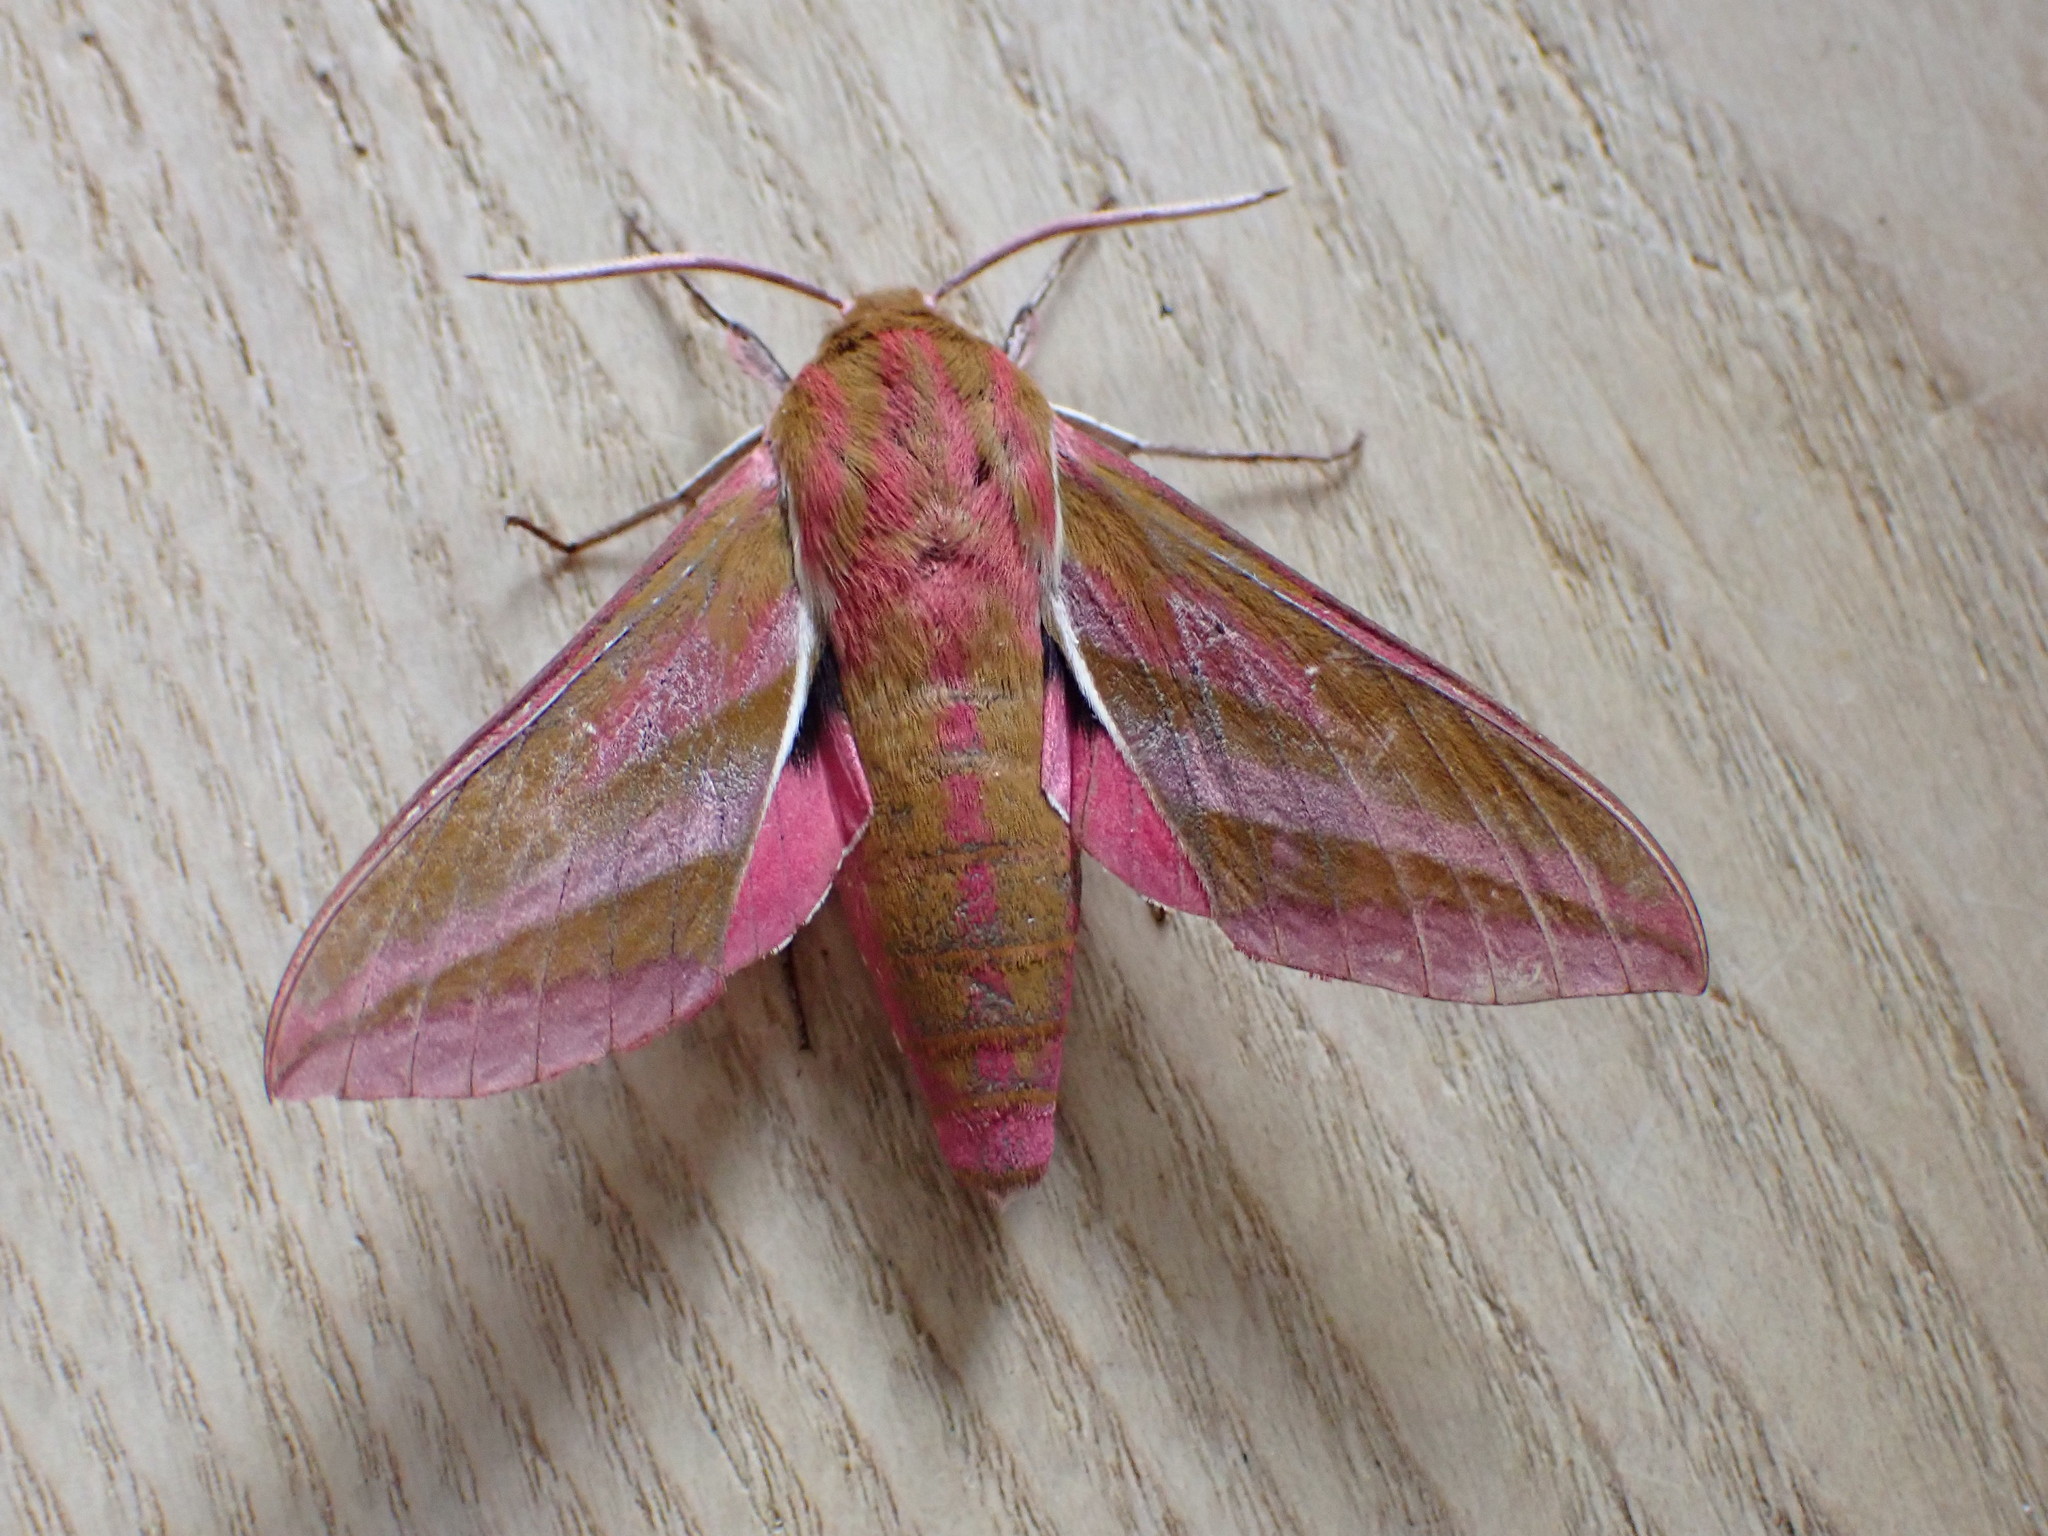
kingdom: Animalia
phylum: Arthropoda
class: Insecta
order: Lepidoptera
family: Sphingidae
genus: Deilephila
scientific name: Deilephila elpenor
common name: Elephant hawk-moth
